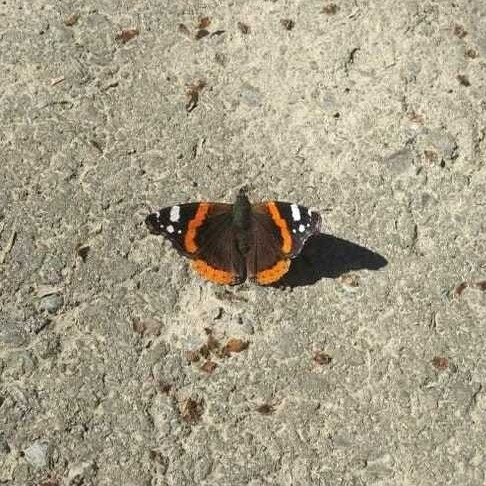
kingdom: Animalia
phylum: Arthropoda
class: Insecta
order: Lepidoptera
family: Nymphalidae
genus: Vanessa
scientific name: Vanessa atalanta
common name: Red admiral
